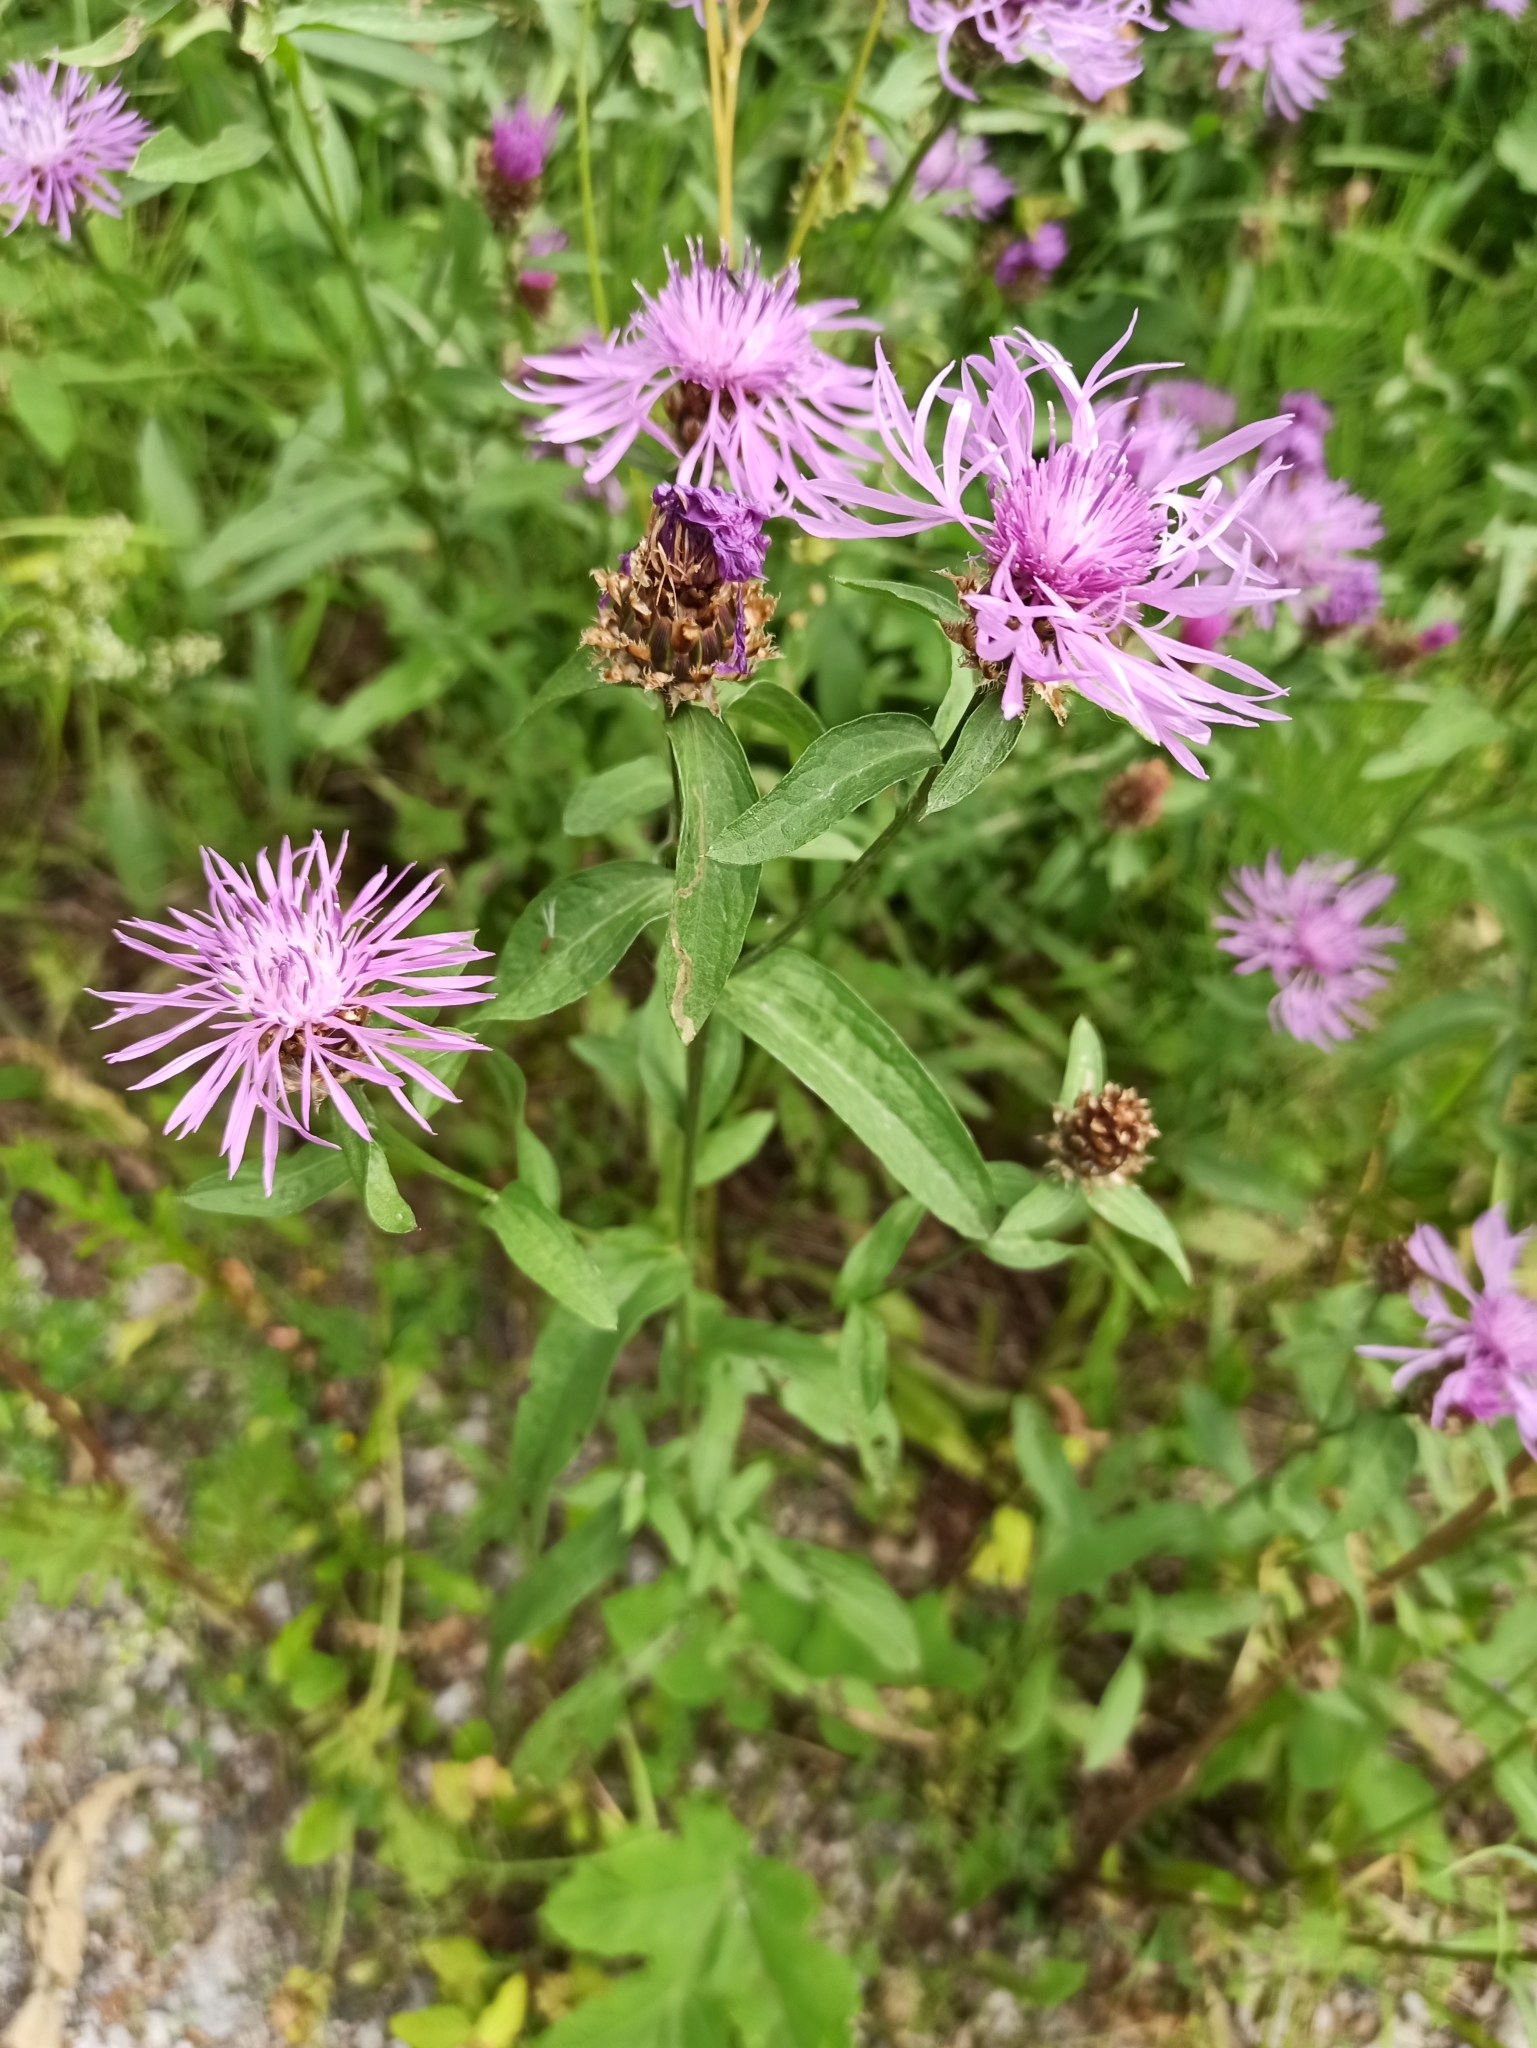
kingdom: Plantae
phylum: Tracheophyta
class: Magnoliopsida
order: Asterales
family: Asteraceae
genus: Centaurea
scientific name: Centaurea jacea
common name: Brown knapweed
